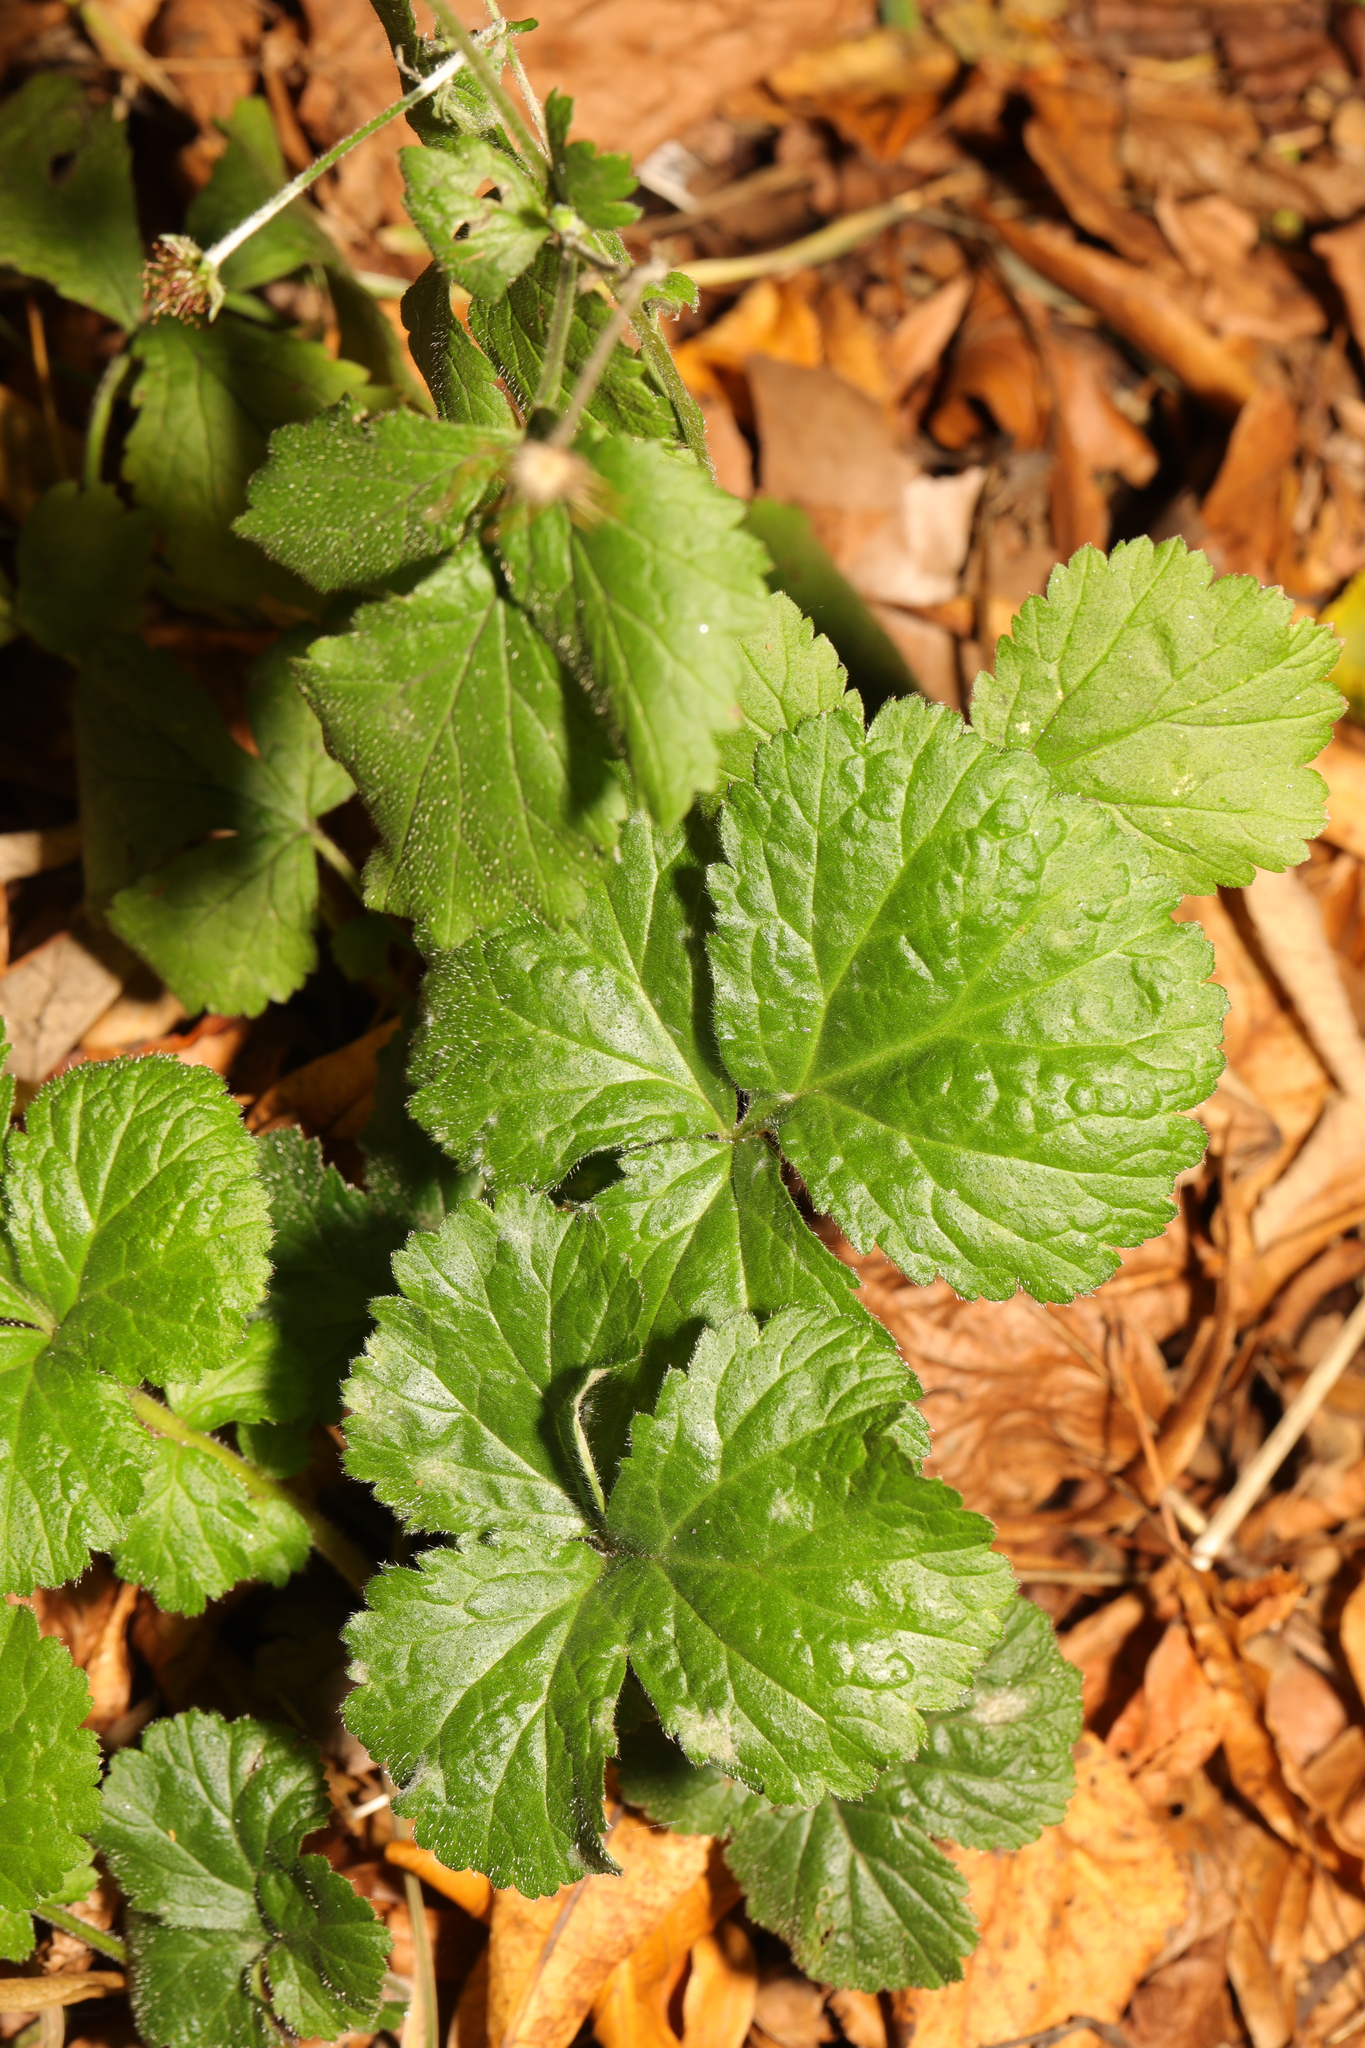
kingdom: Plantae
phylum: Tracheophyta
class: Magnoliopsida
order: Rosales
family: Rosaceae
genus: Geum
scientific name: Geum urbanum
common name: Wood avens
